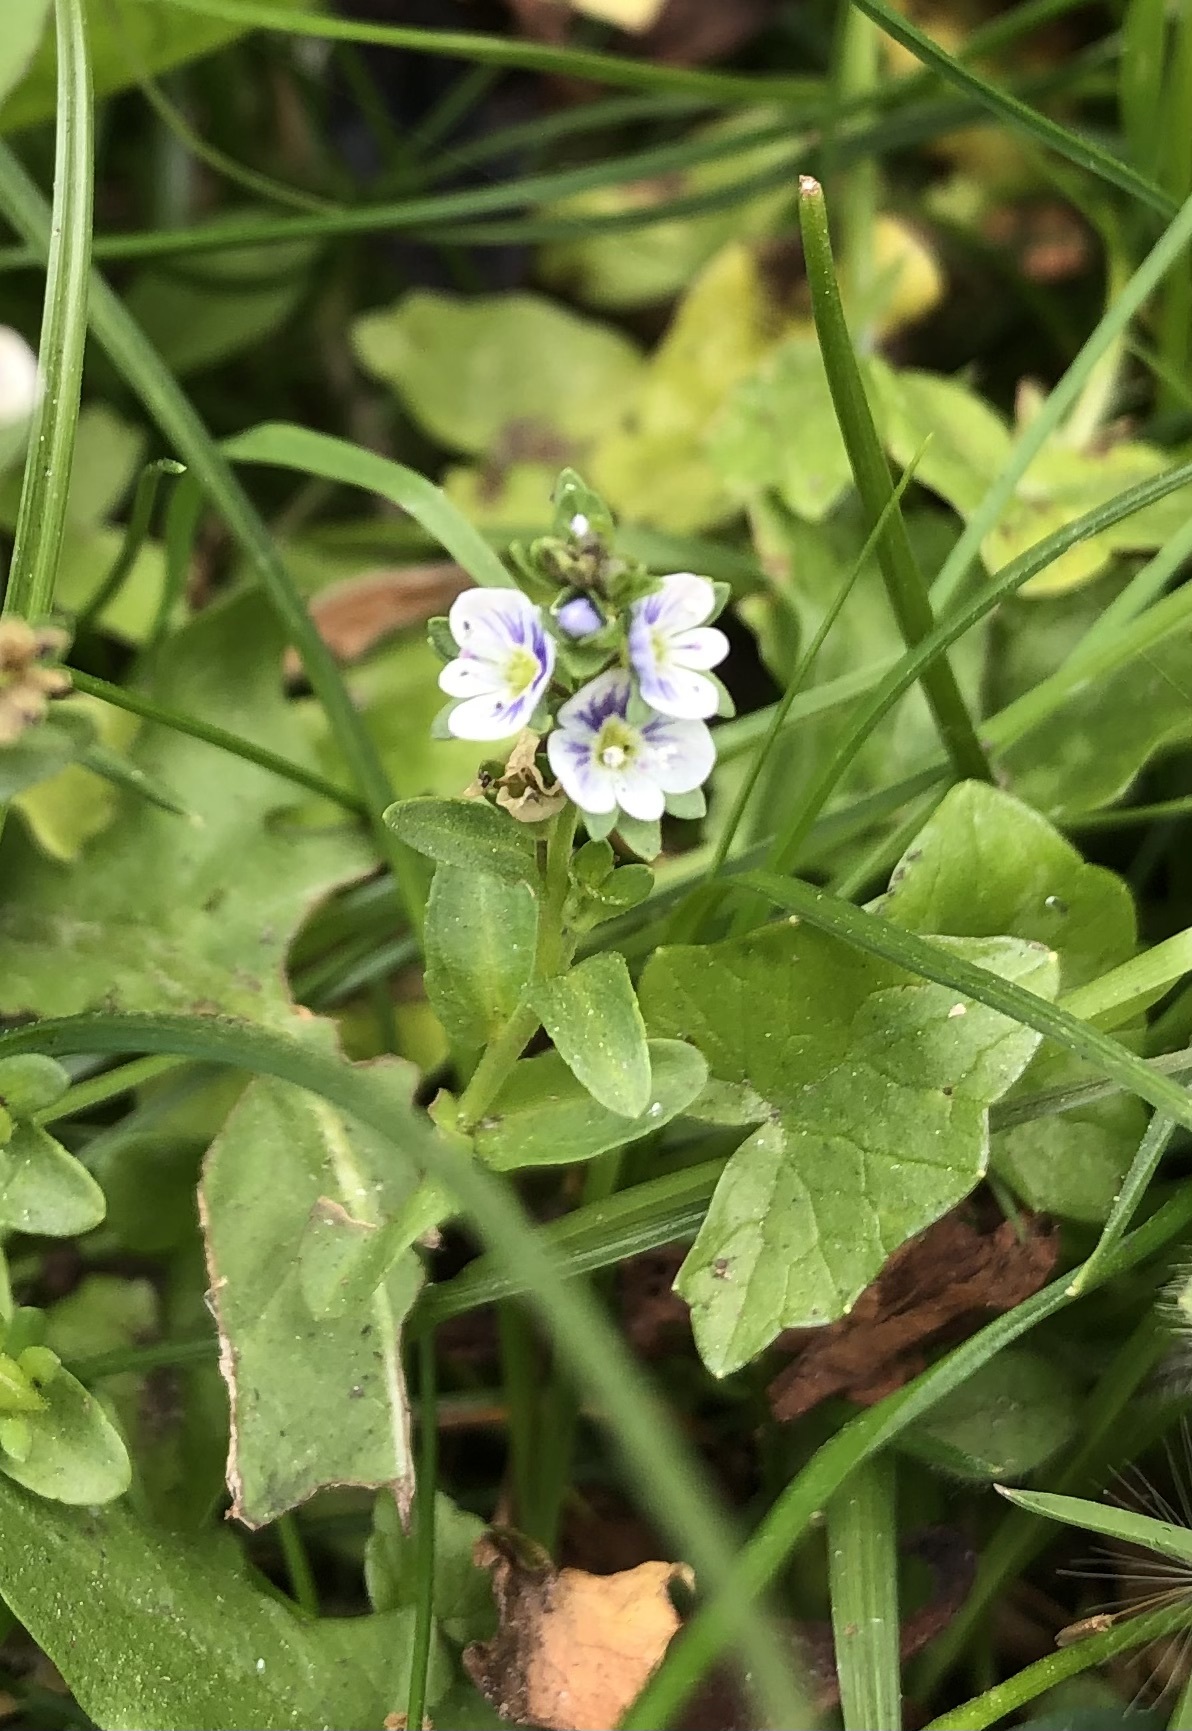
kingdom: Plantae
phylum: Tracheophyta
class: Magnoliopsida
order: Lamiales
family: Plantaginaceae
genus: Veronica
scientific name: Veronica serpyllifolia
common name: Thyme-leaved speedwell
